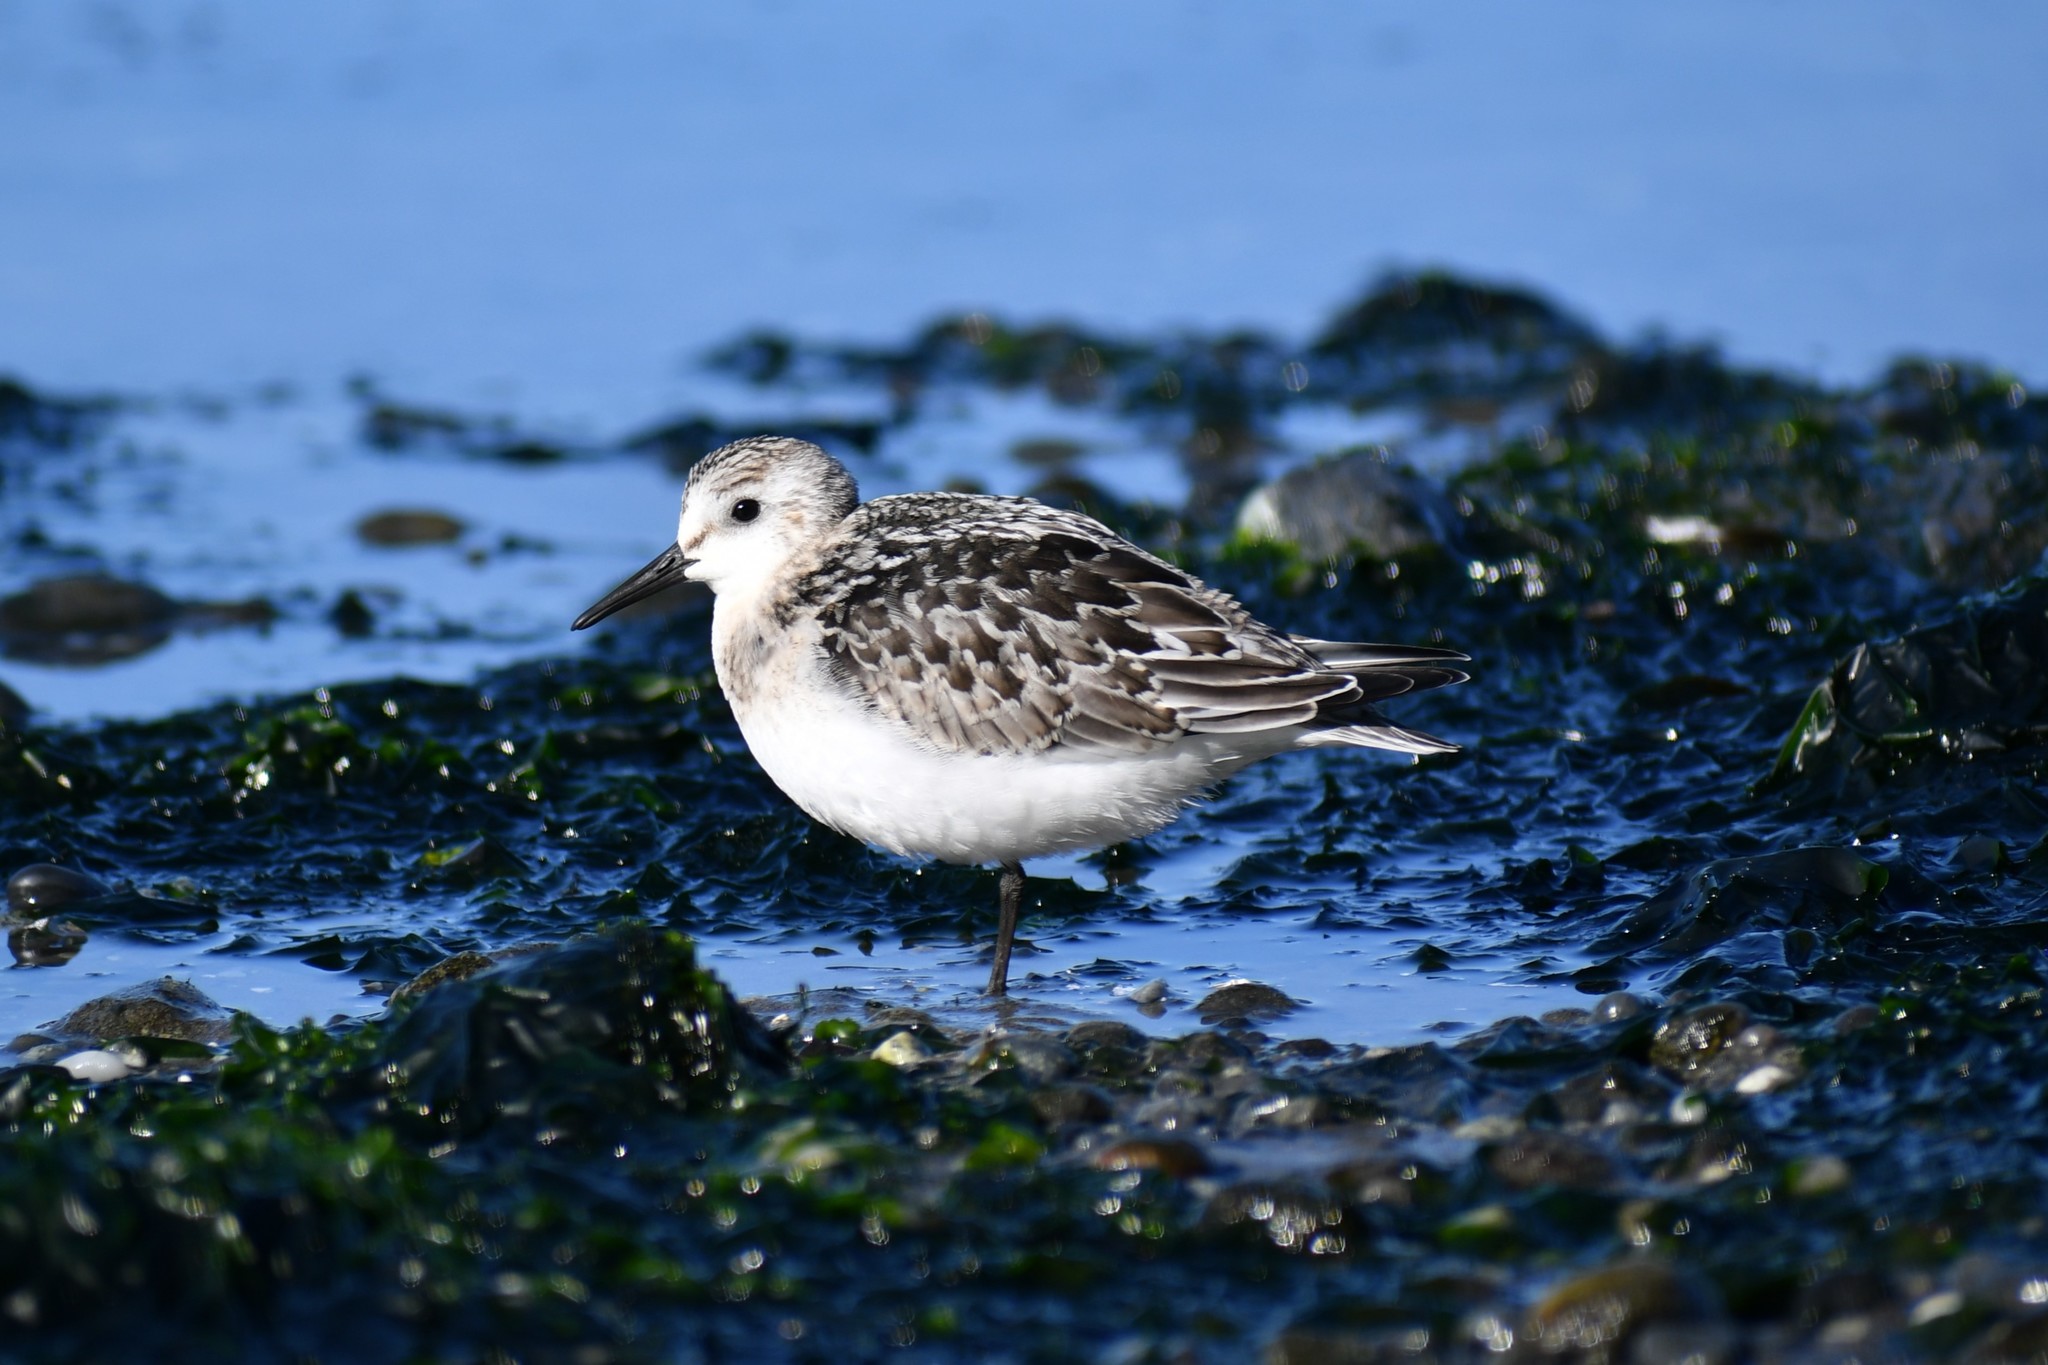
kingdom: Animalia
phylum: Chordata
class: Aves
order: Charadriiformes
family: Scolopacidae
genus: Calidris
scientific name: Calidris alba
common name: Sanderling
